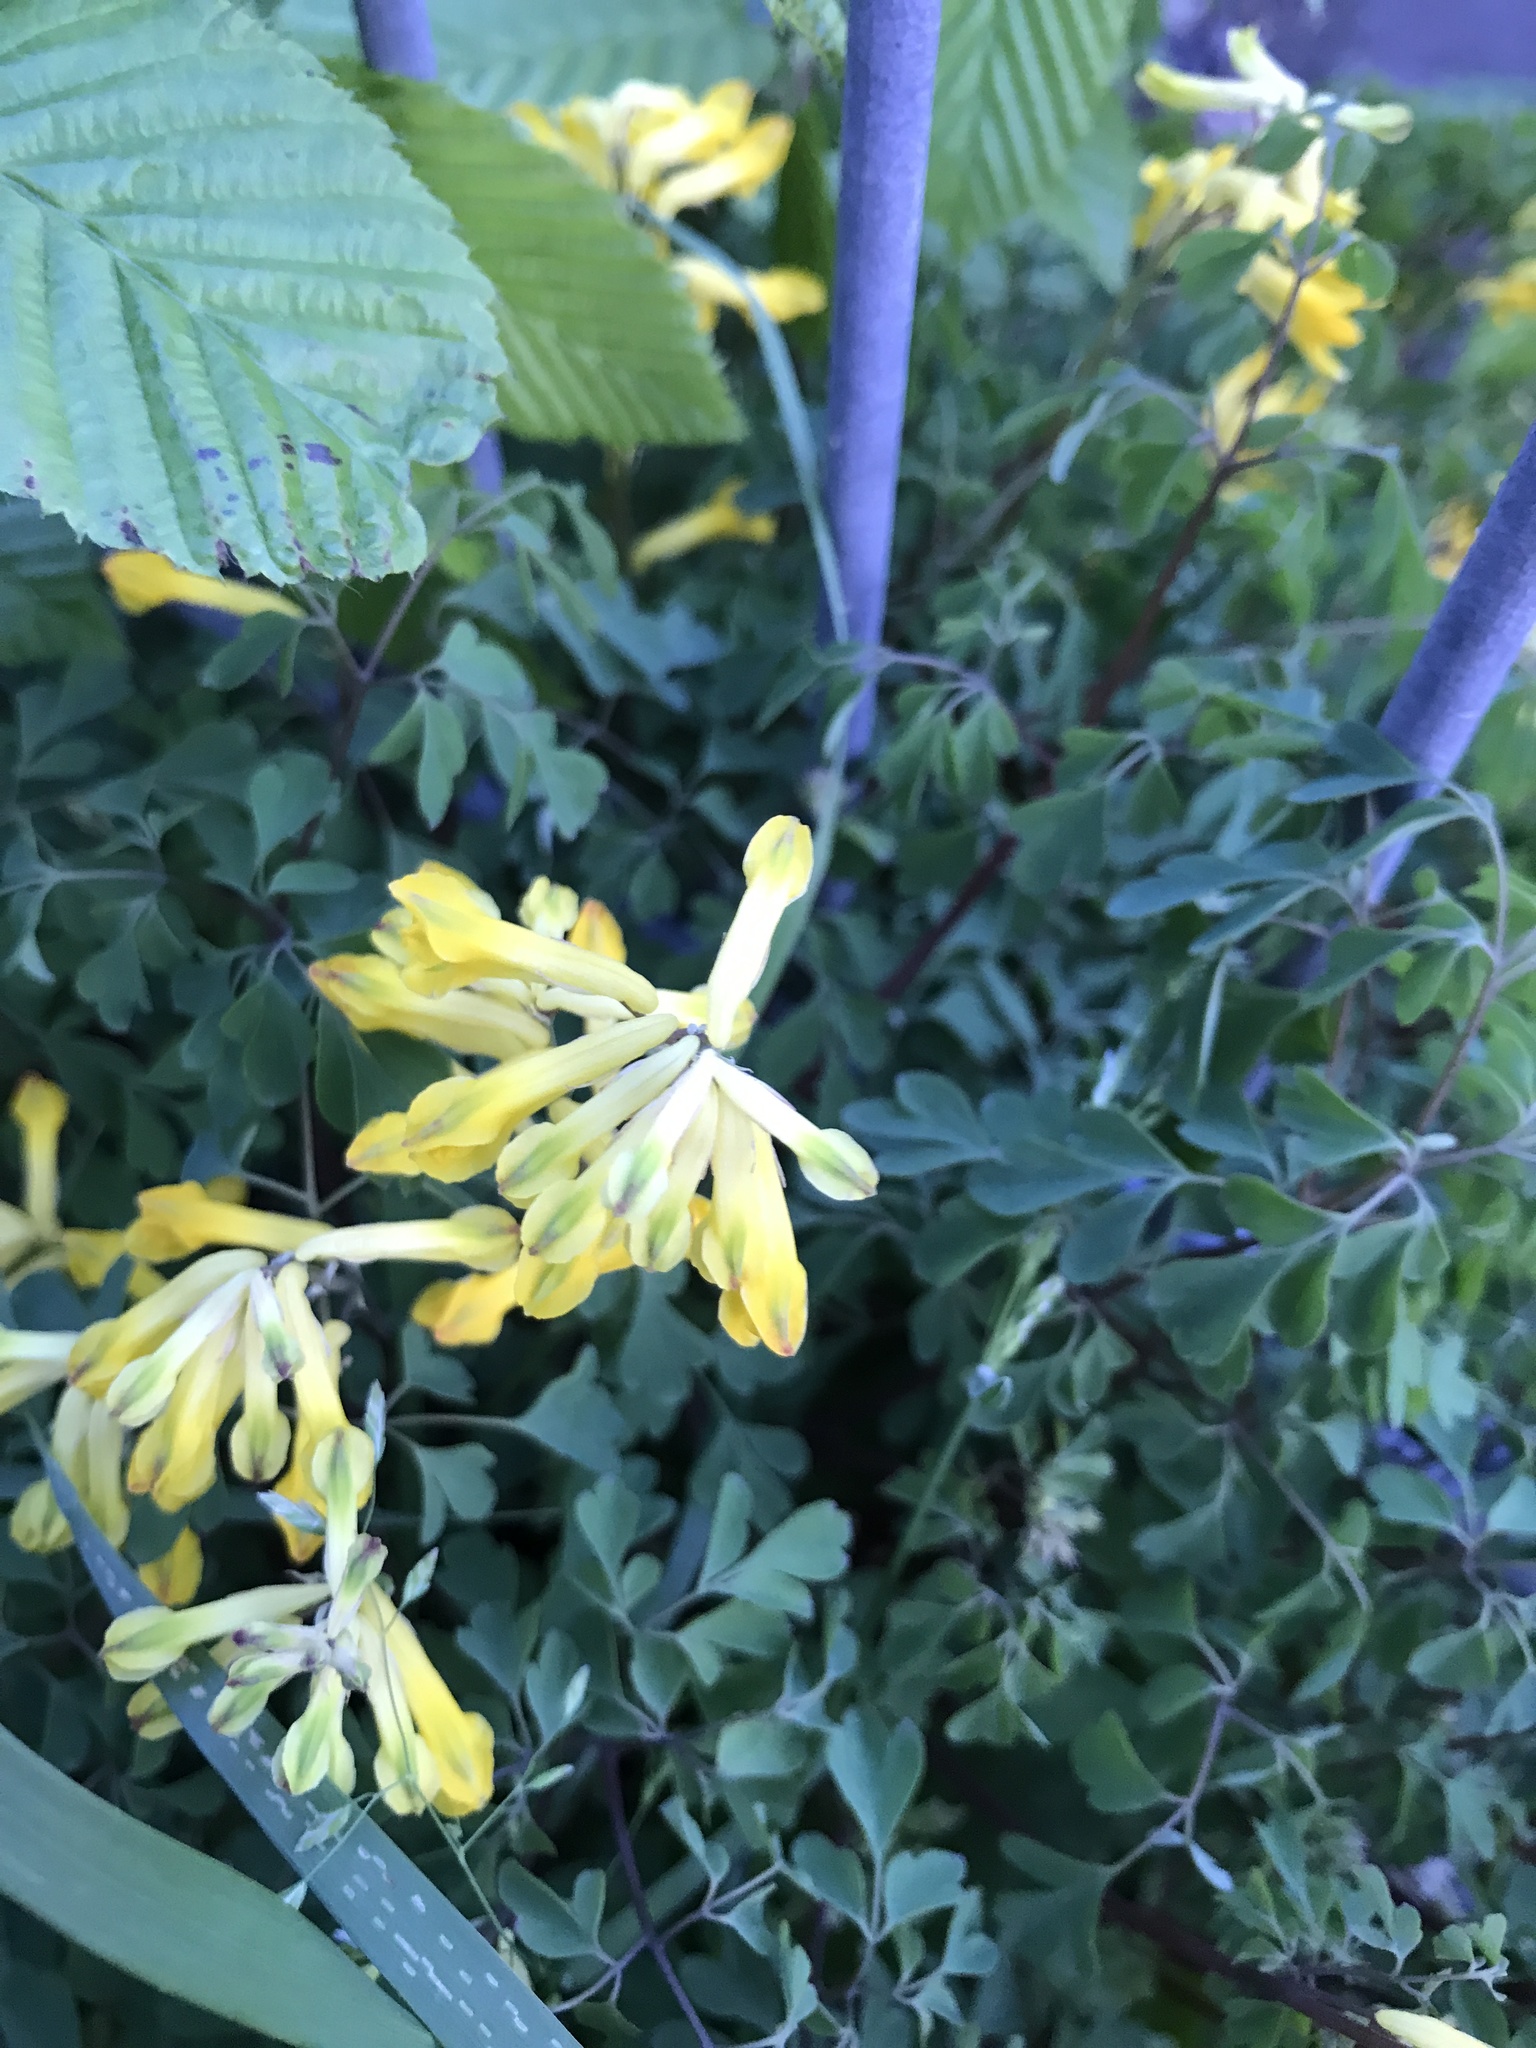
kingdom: Plantae
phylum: Tracheophyta
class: Magnoliopsida
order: Ranunculales
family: Papaveraceae
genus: Pseudofumaria
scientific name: Pseudofumaria lutea
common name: Yellow corydalis
